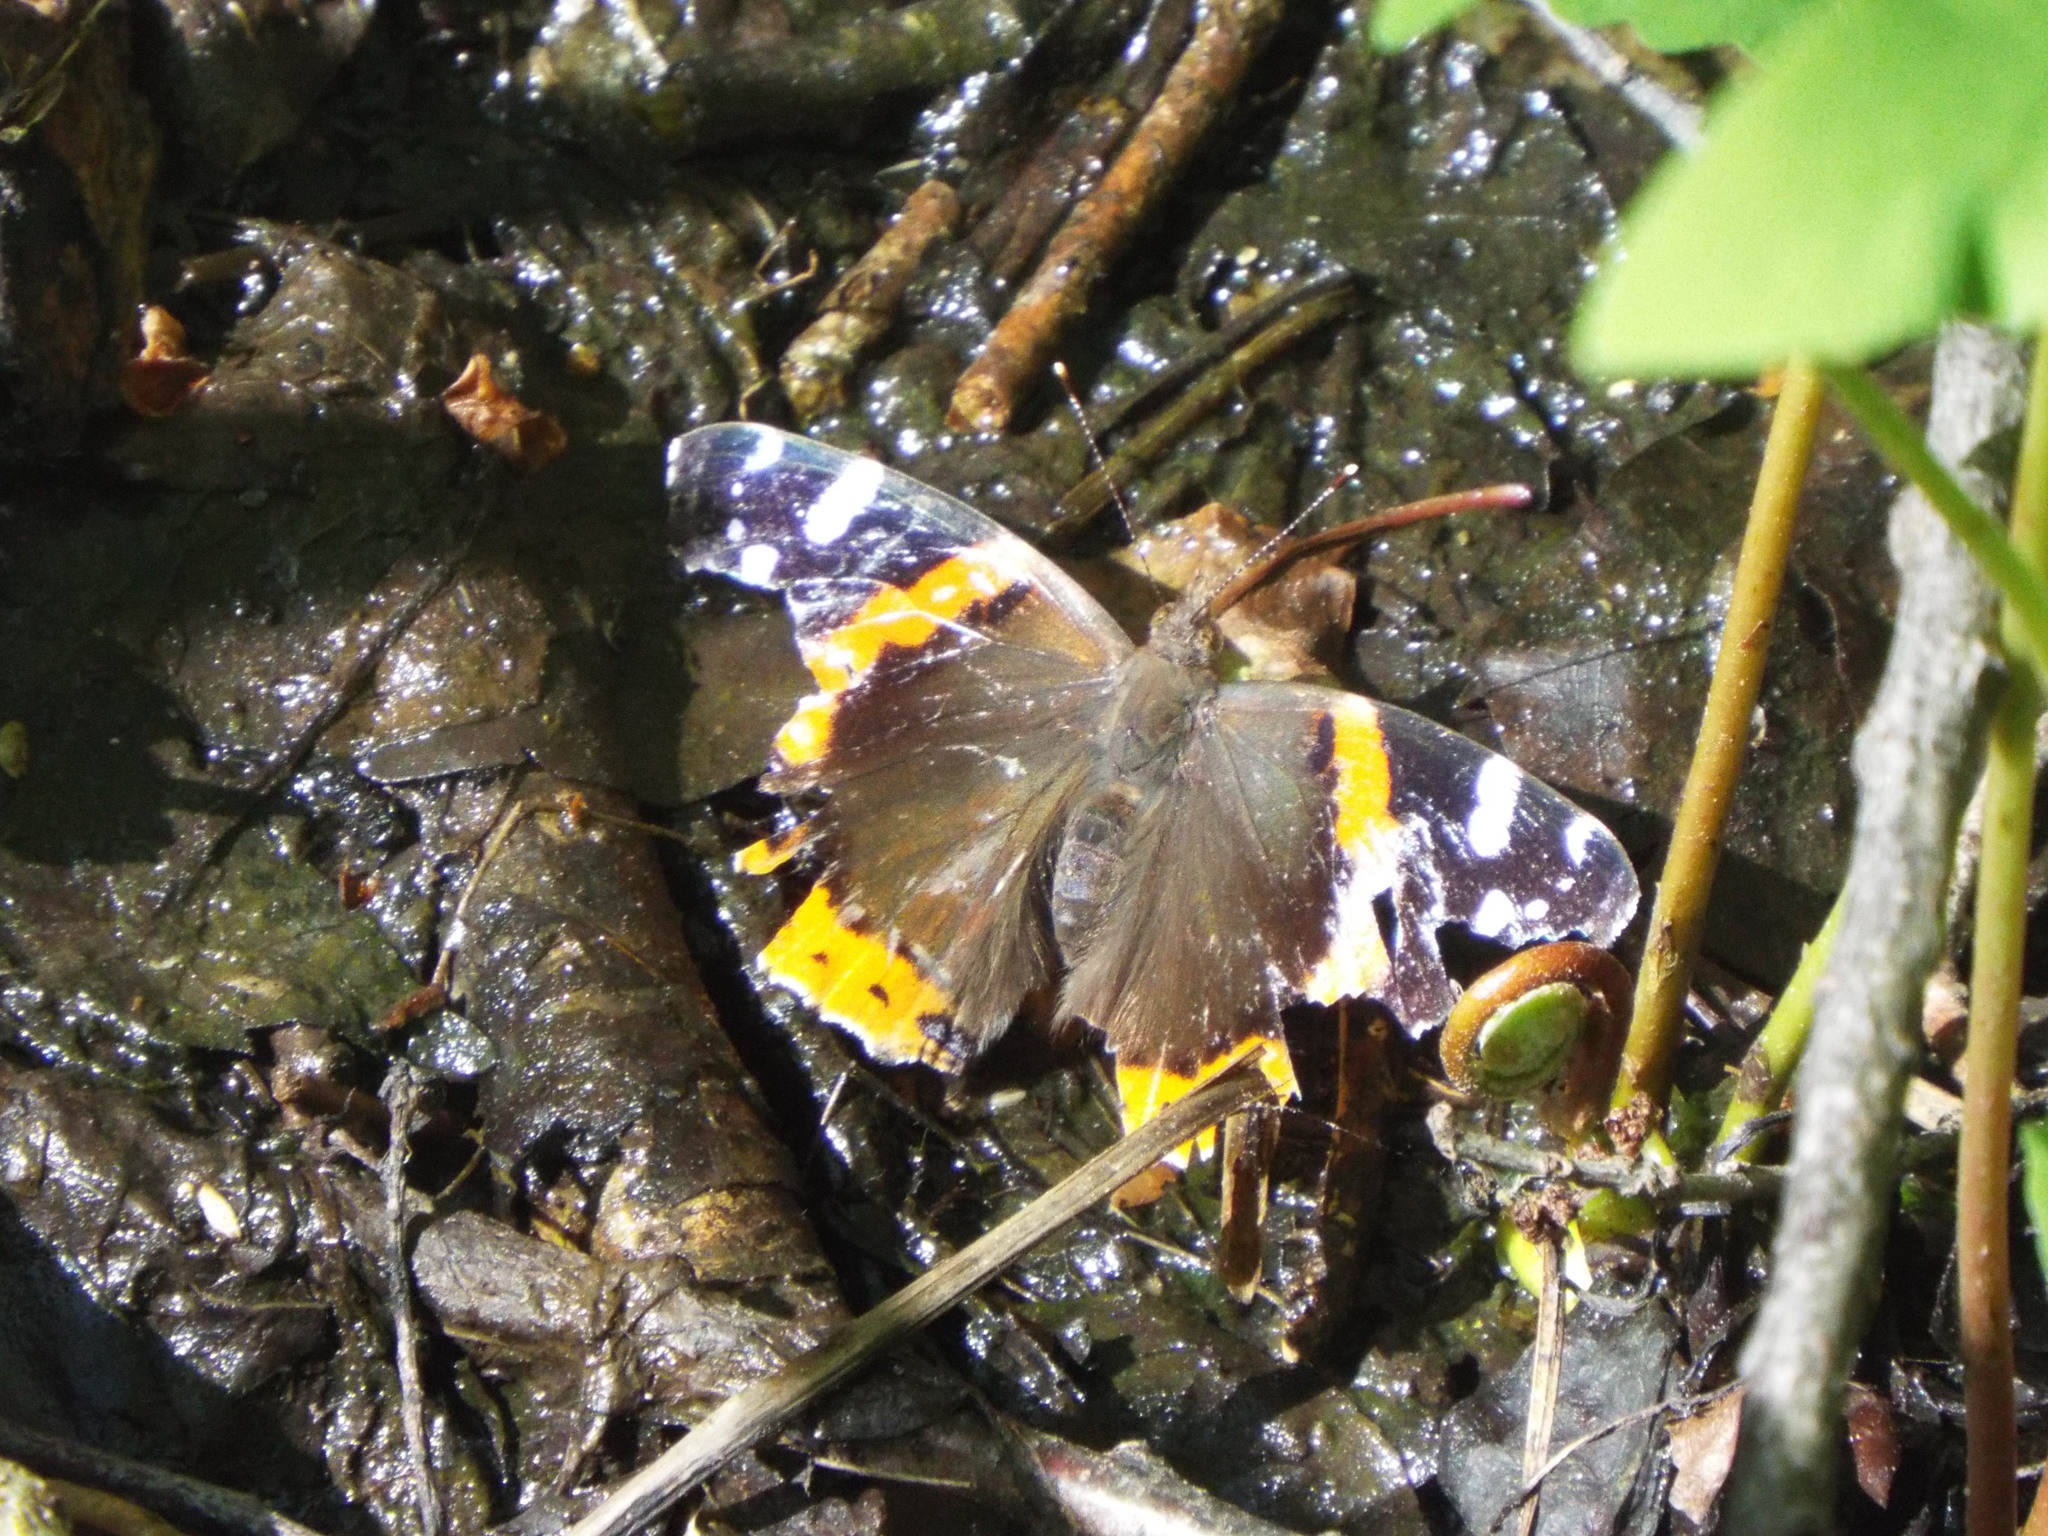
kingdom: Animalia
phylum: Arthropoda
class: Insecta
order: Lepidoptera
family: Nymphalidae
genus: Vanessa
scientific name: Vanessa atalanta
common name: Red admiral
